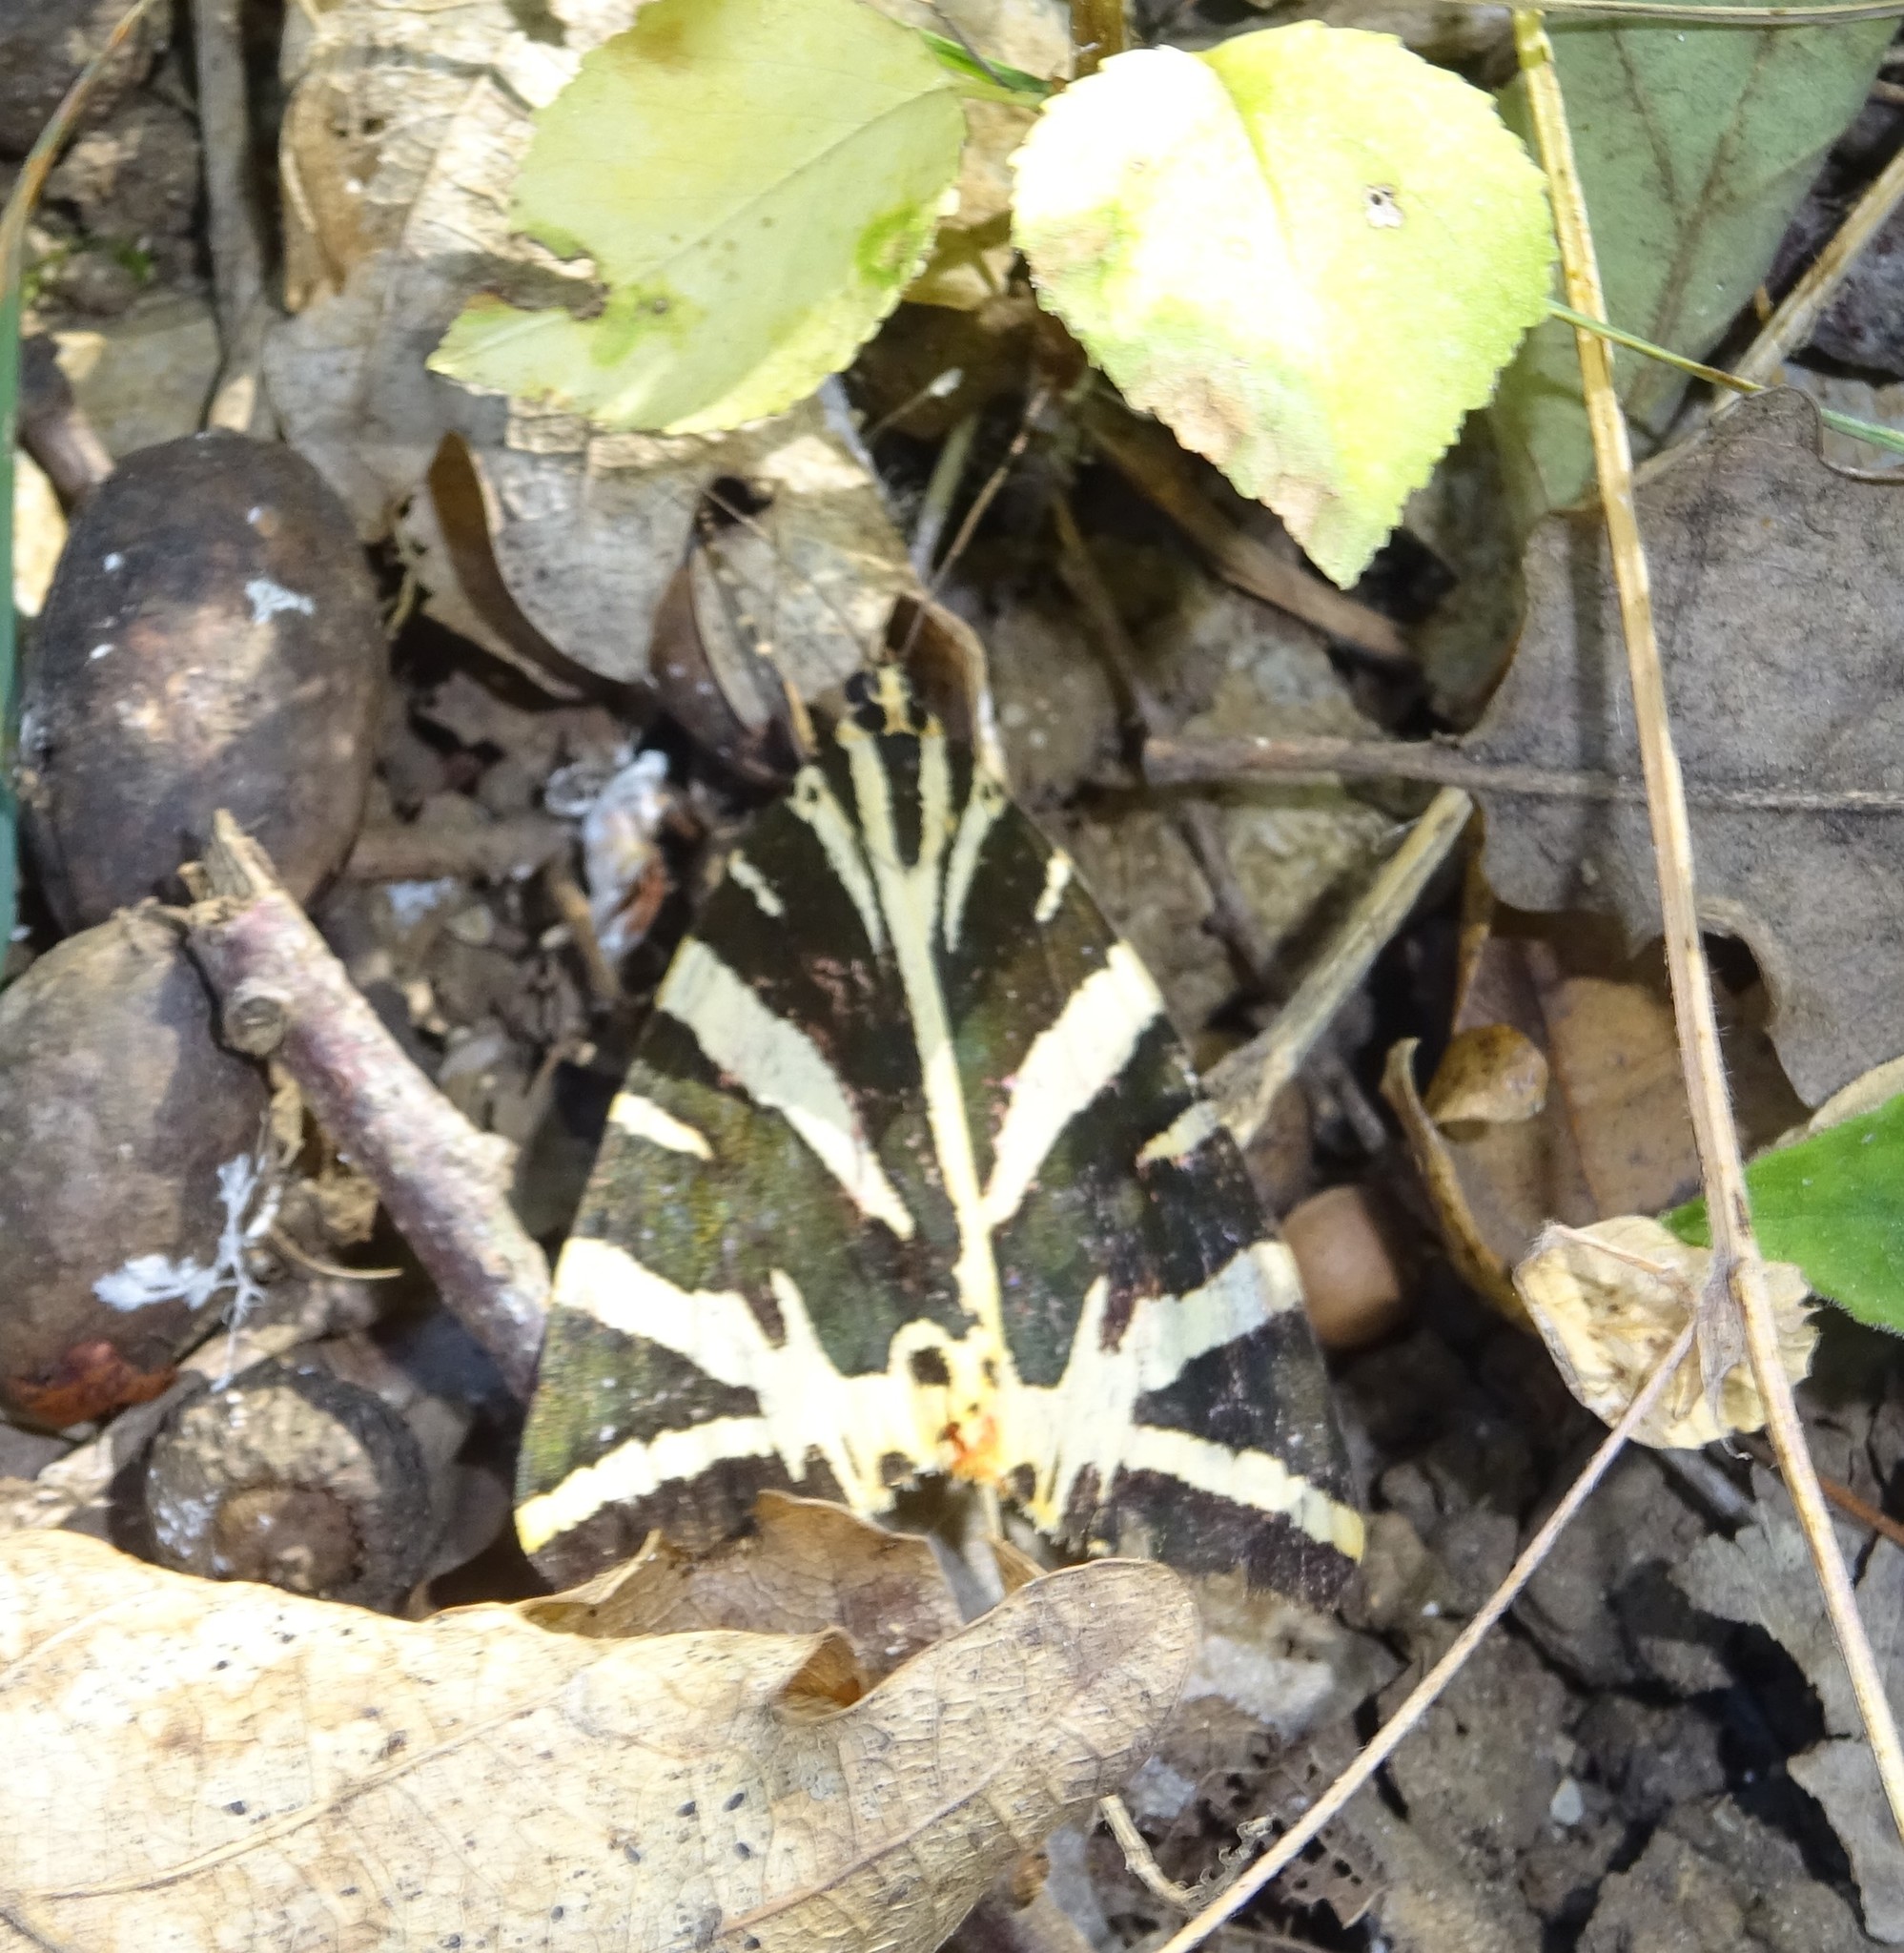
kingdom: Animalia
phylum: Arthropoda
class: Insecta
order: Lepidoptera
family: Erebidae
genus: Euplagia
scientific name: Euplagia quadripunctaria
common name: Jersey tiger
